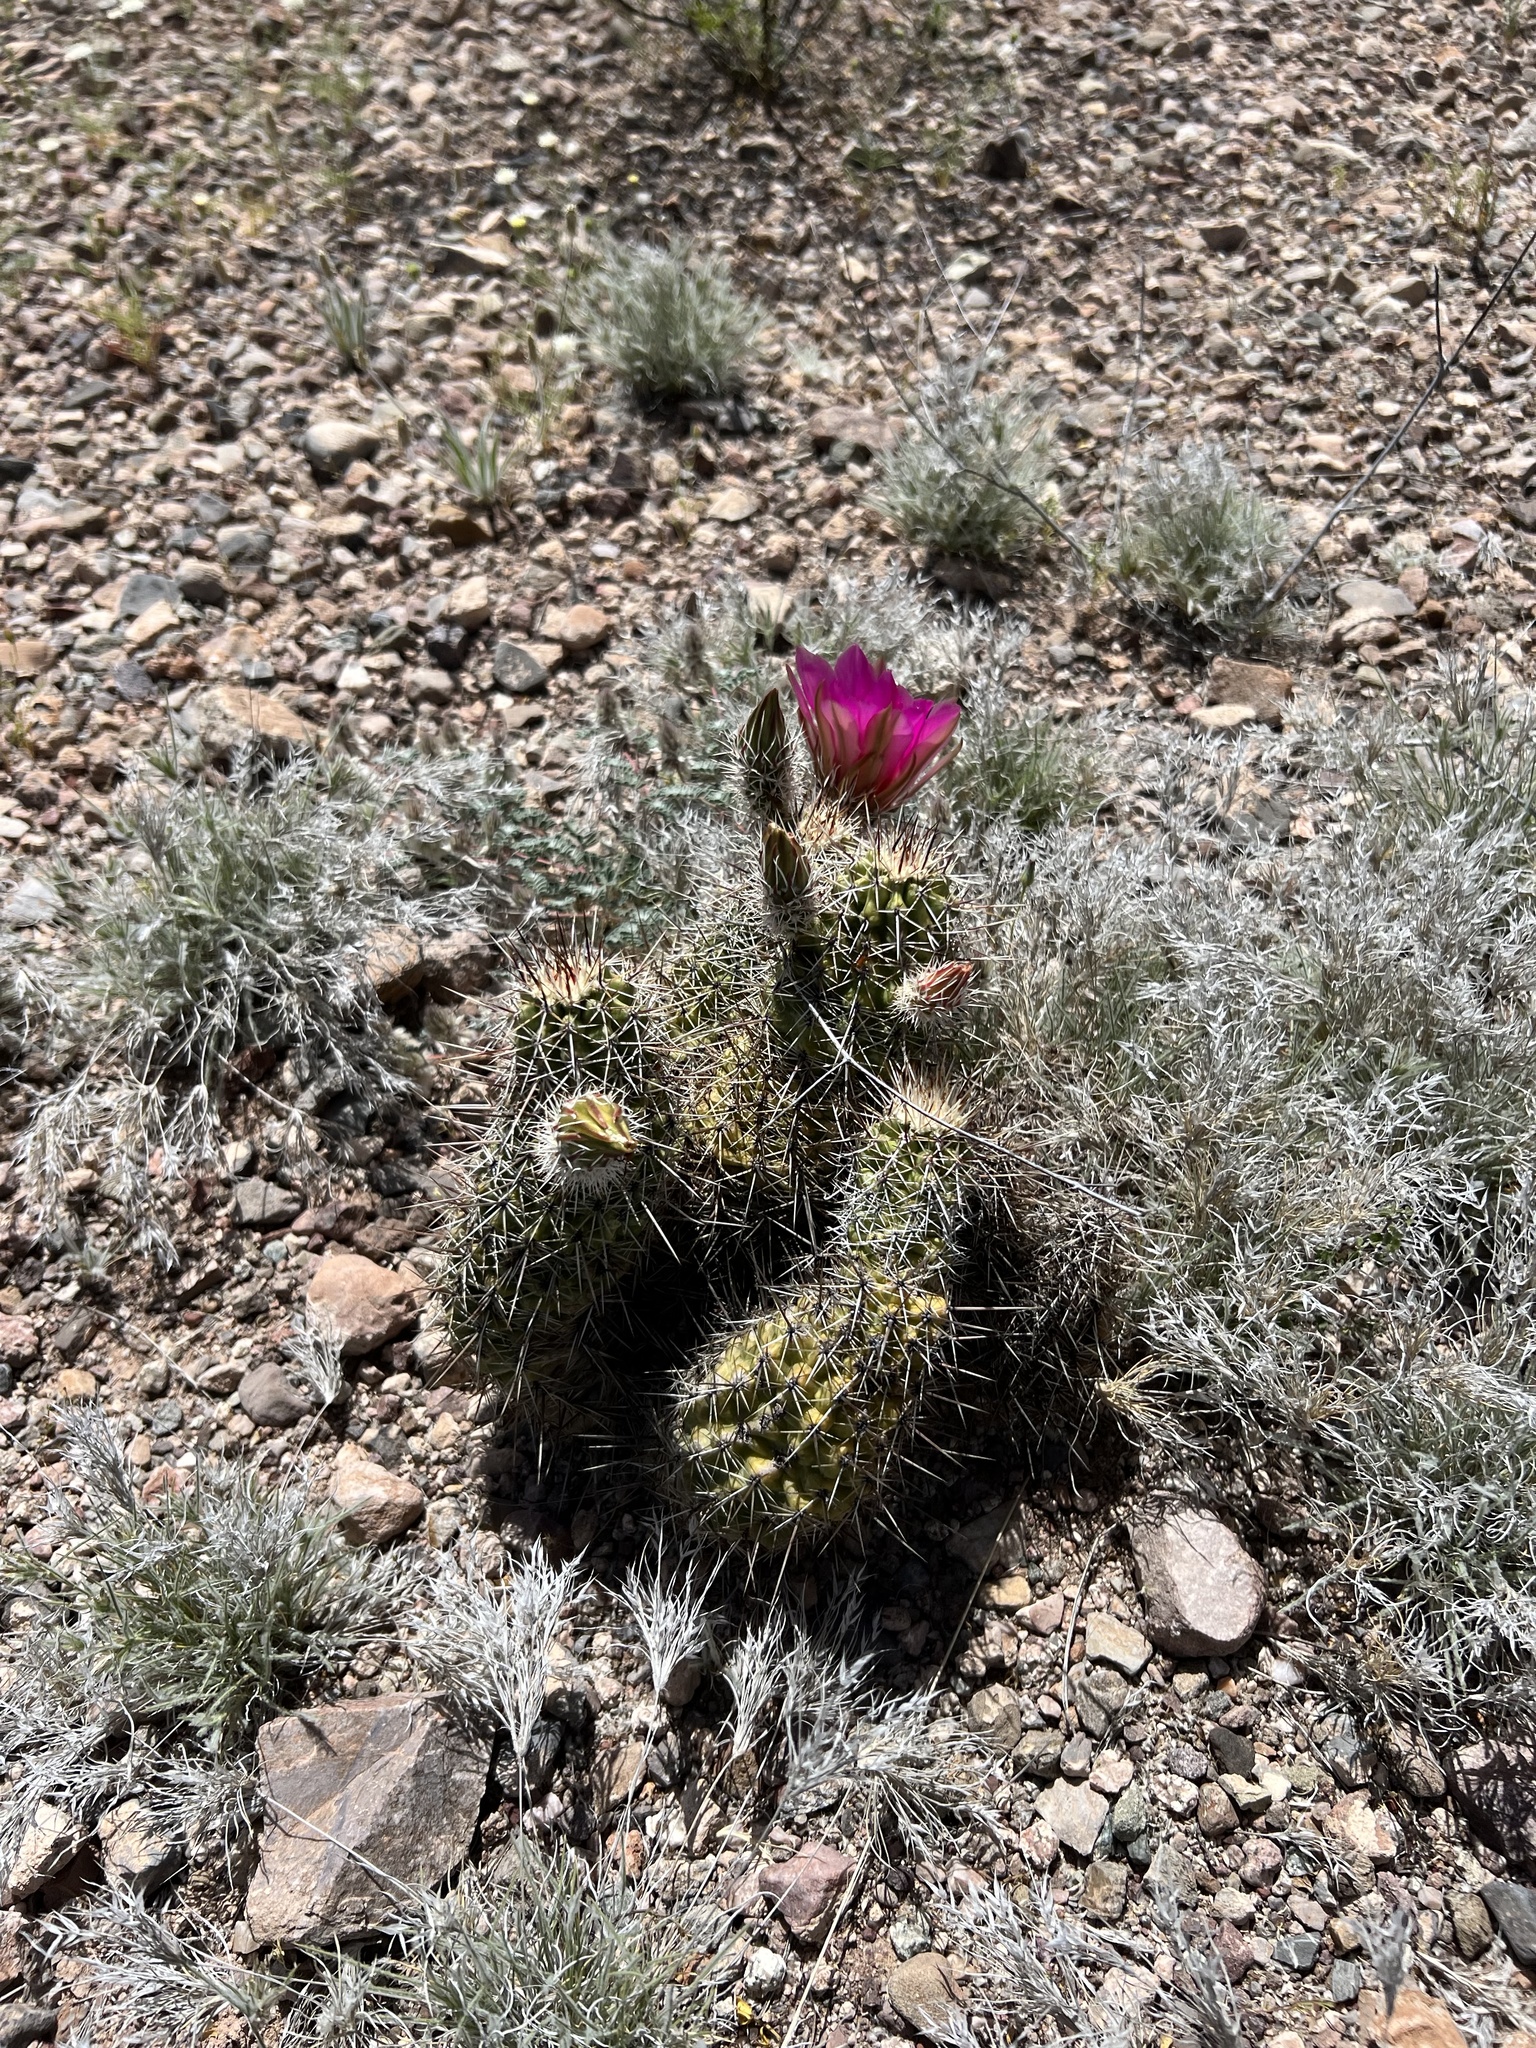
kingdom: Plantae
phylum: Tracheophyta
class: Magnoliopsida
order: Caryophyllales
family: Cactaceae
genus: Echinocereus
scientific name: Echinocereus fasciculatus
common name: Bundle hedgehog
